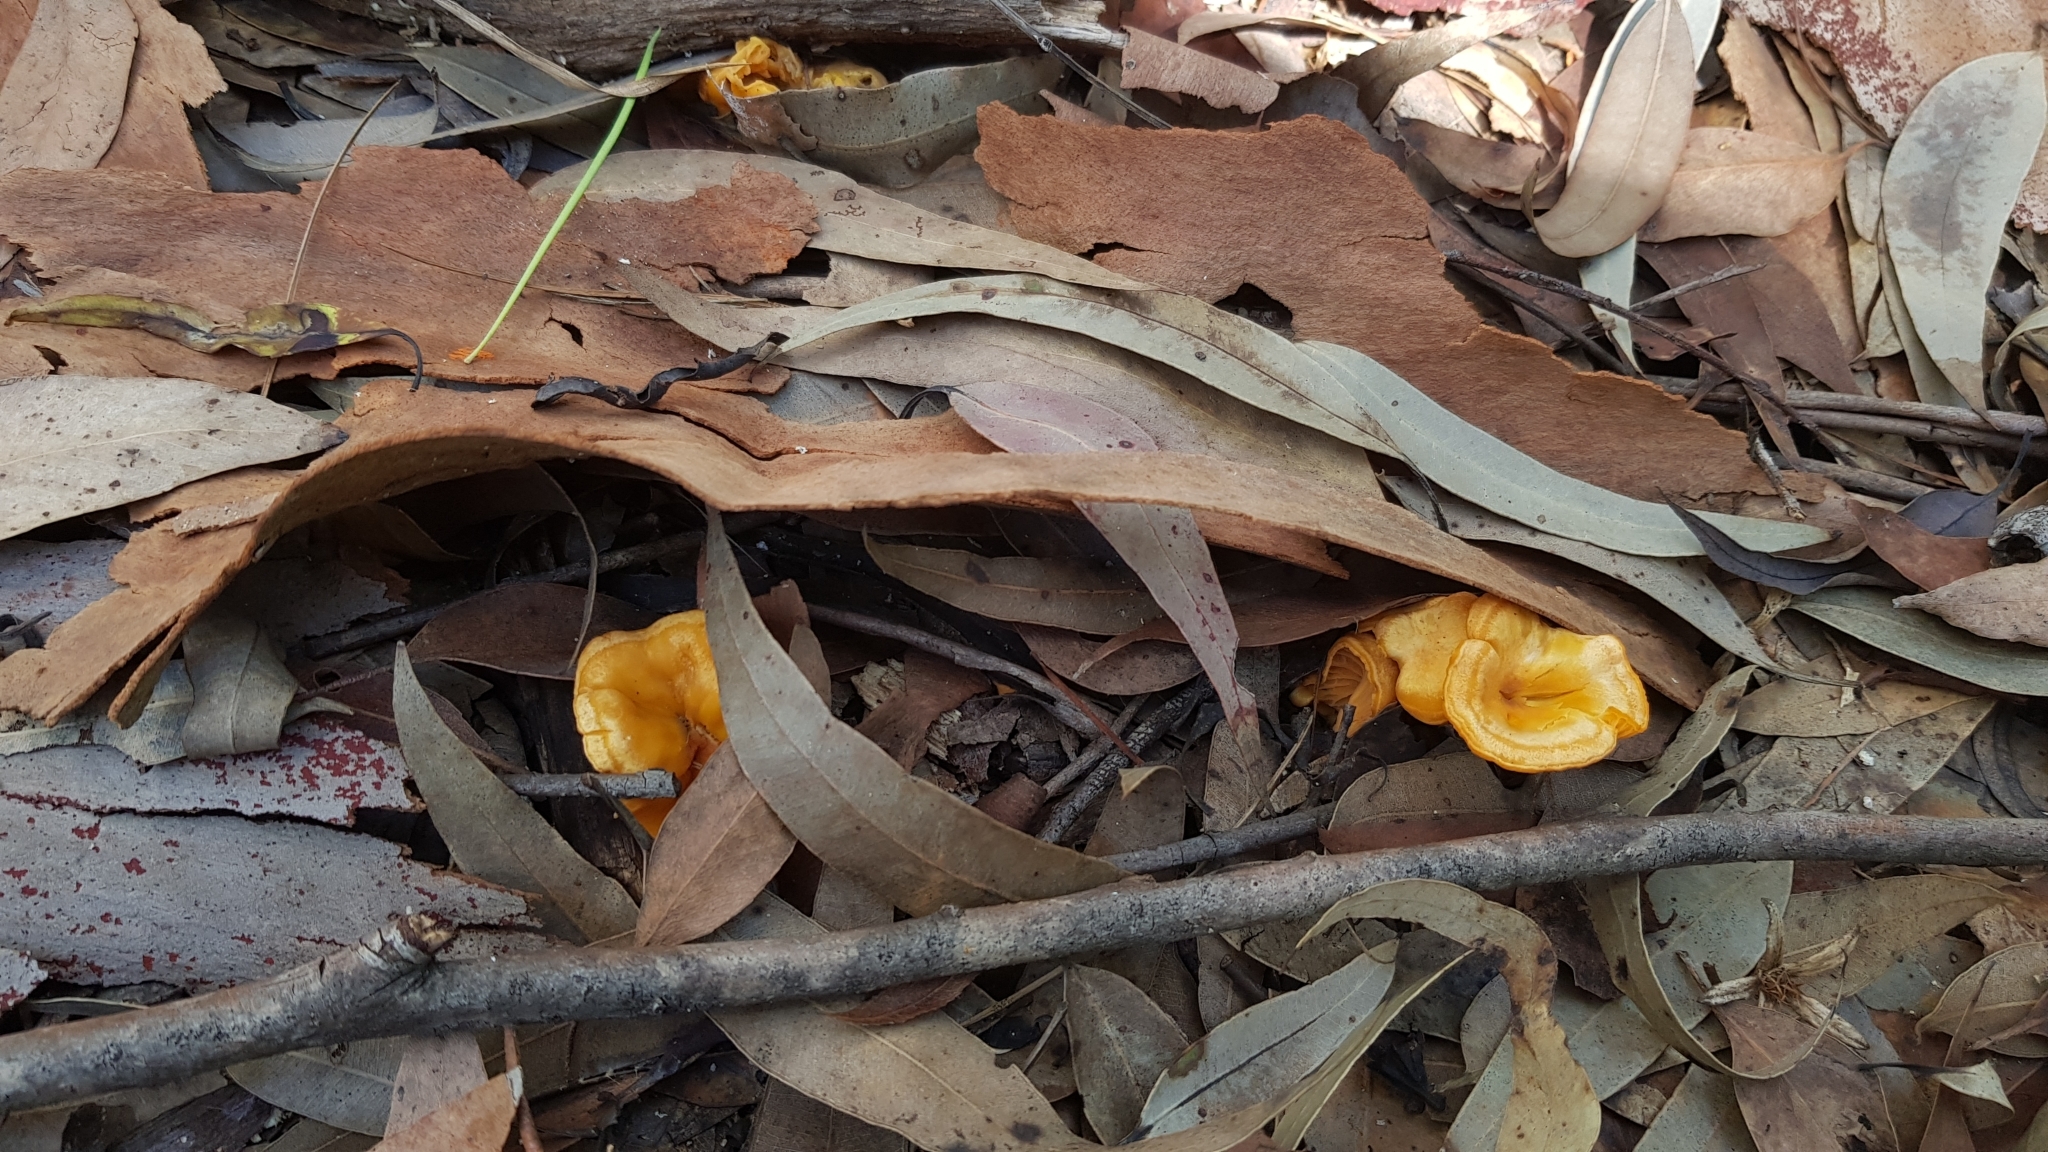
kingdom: Fungi
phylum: Basidiomycota
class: Agaricomycetes
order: Cantharellales
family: Hydnaceae
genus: Cantharellus
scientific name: Cantharellus
